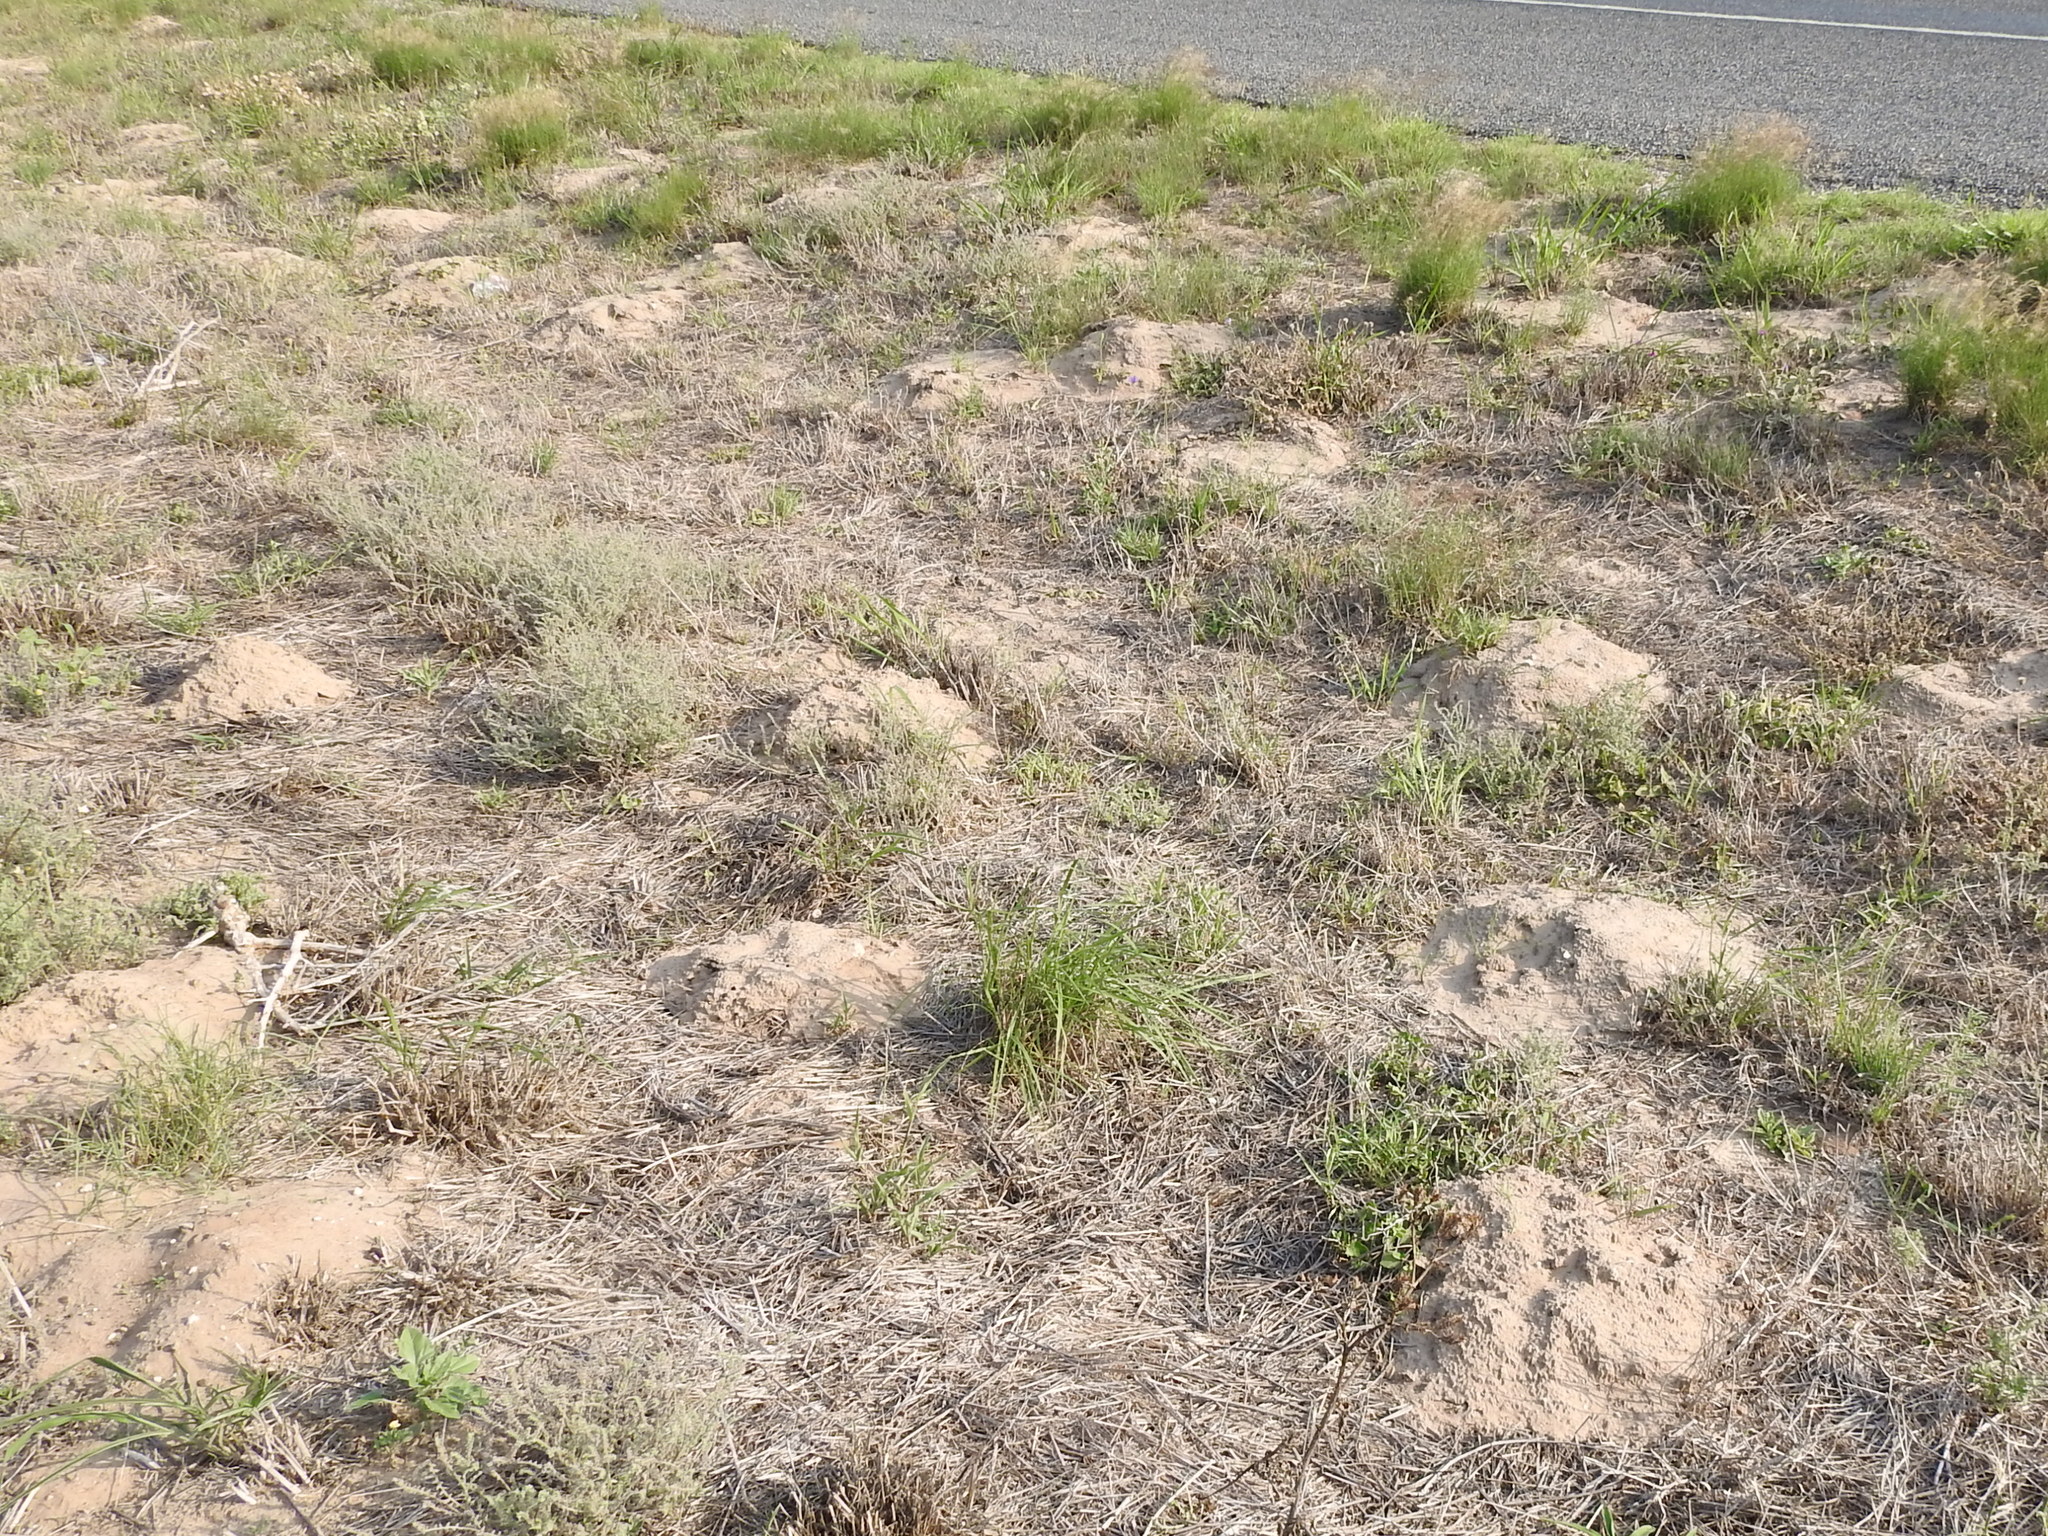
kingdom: Animalia
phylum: Chordata
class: Mammalia
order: Rodentia
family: Geomyidae
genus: Geomys
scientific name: Geomys personatus
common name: Texas pocket gopher
